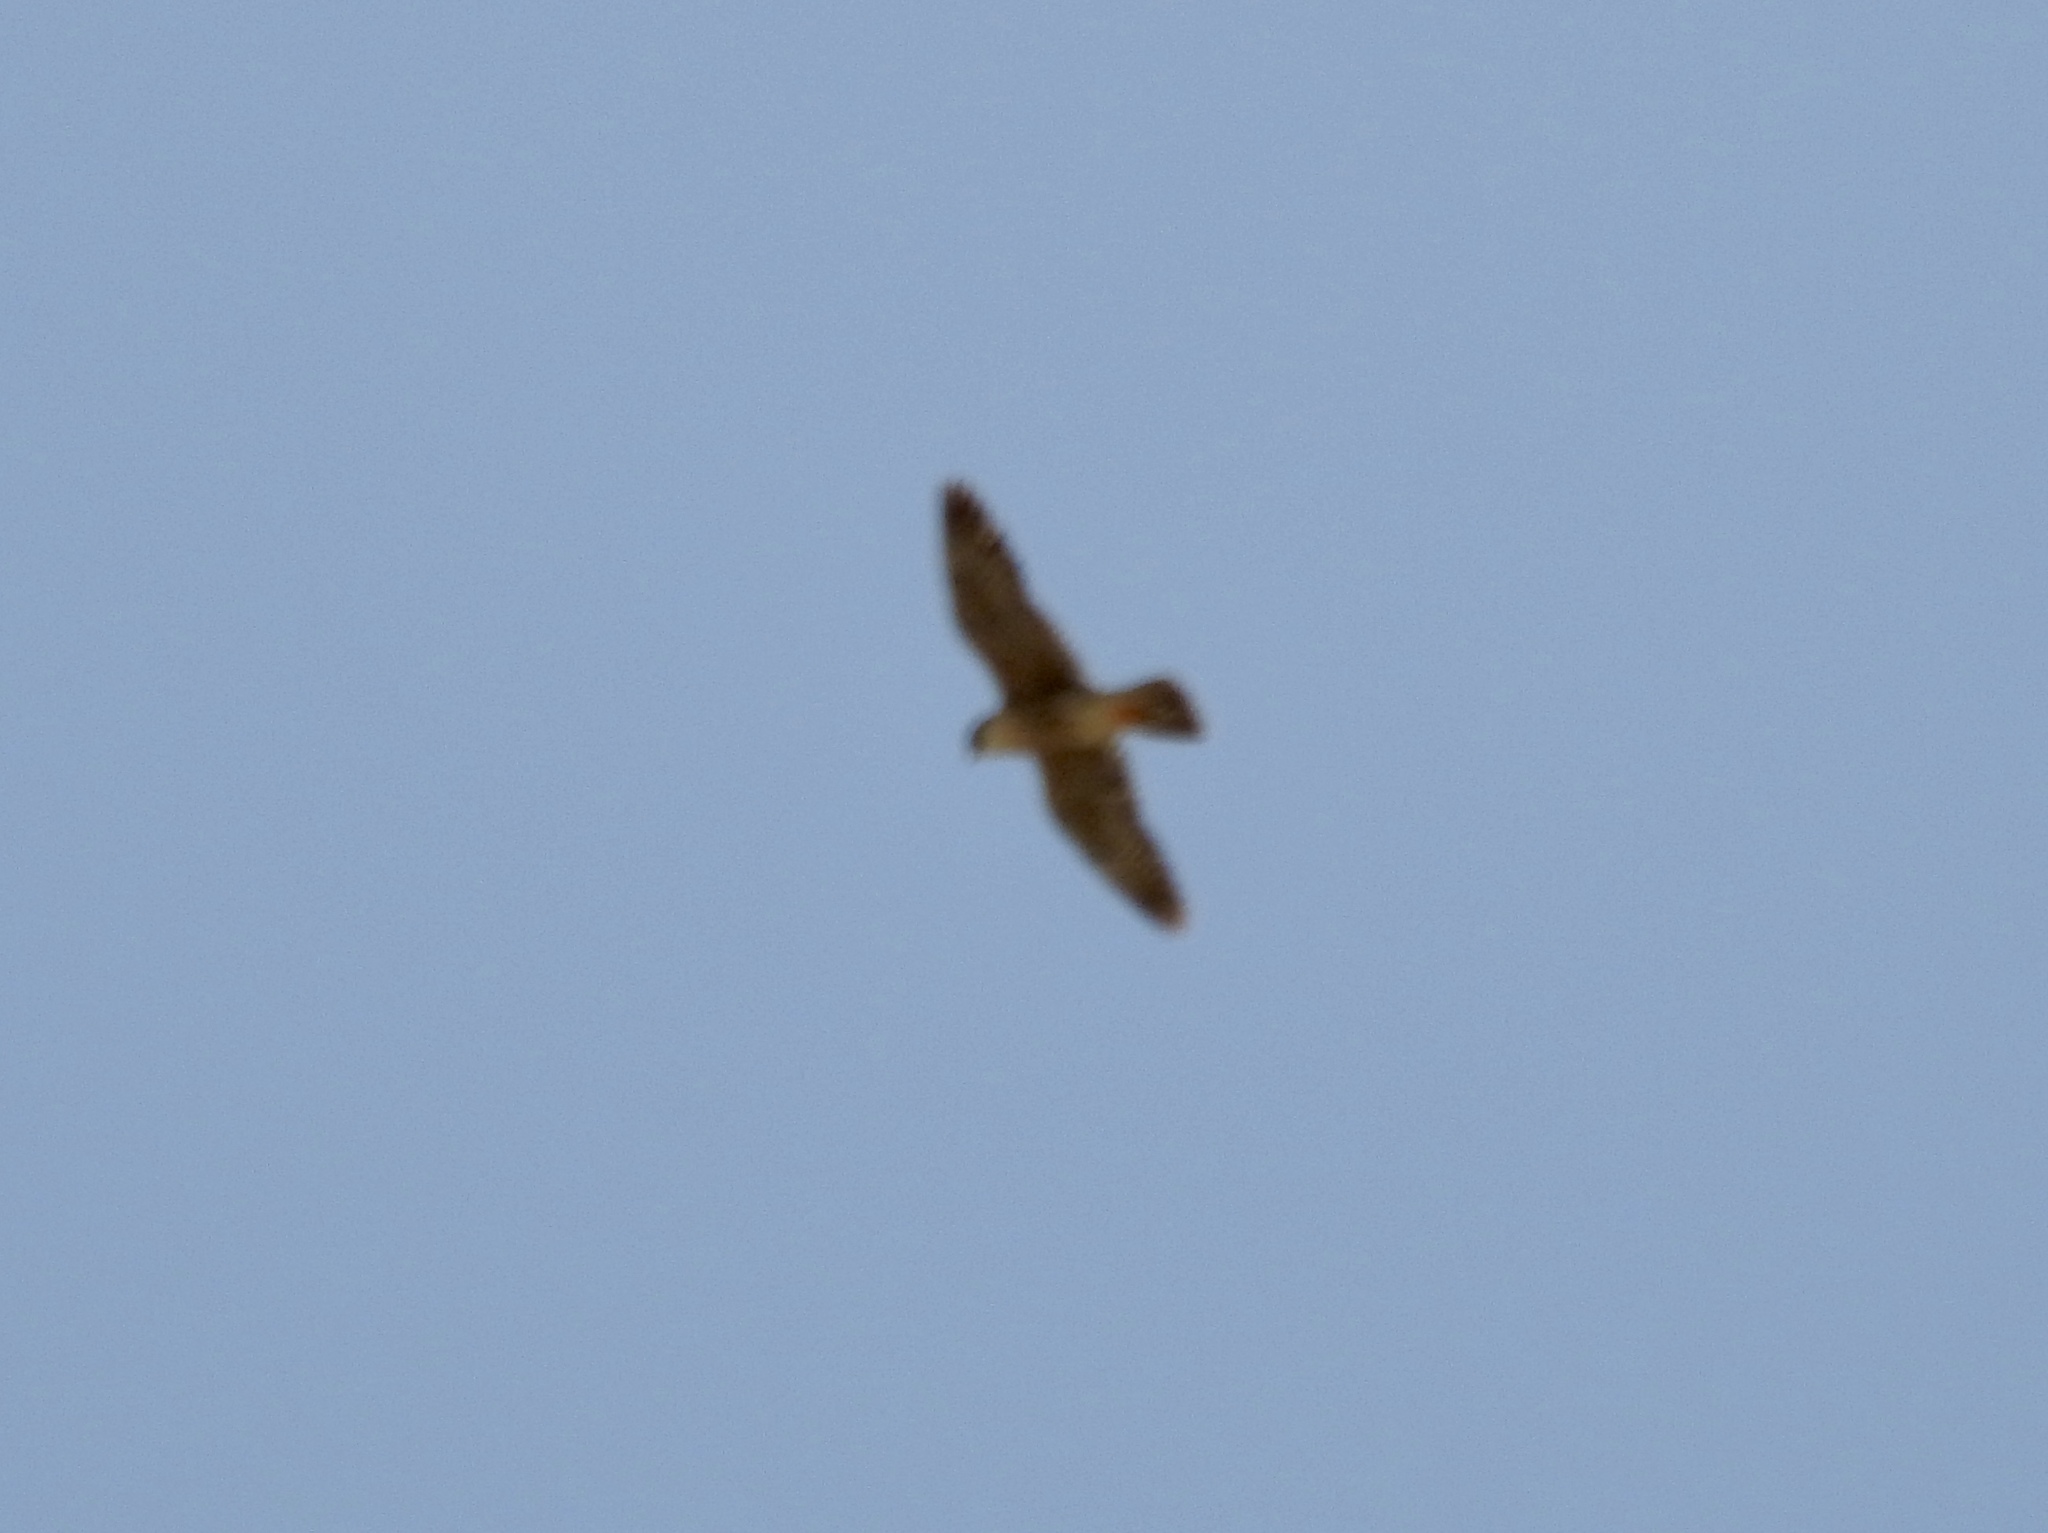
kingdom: Animalia
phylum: Chordata
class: Aves
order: Falconiformes
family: Falconidae
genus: Falco
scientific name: Falco peregrinus
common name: Peregrine falcon
